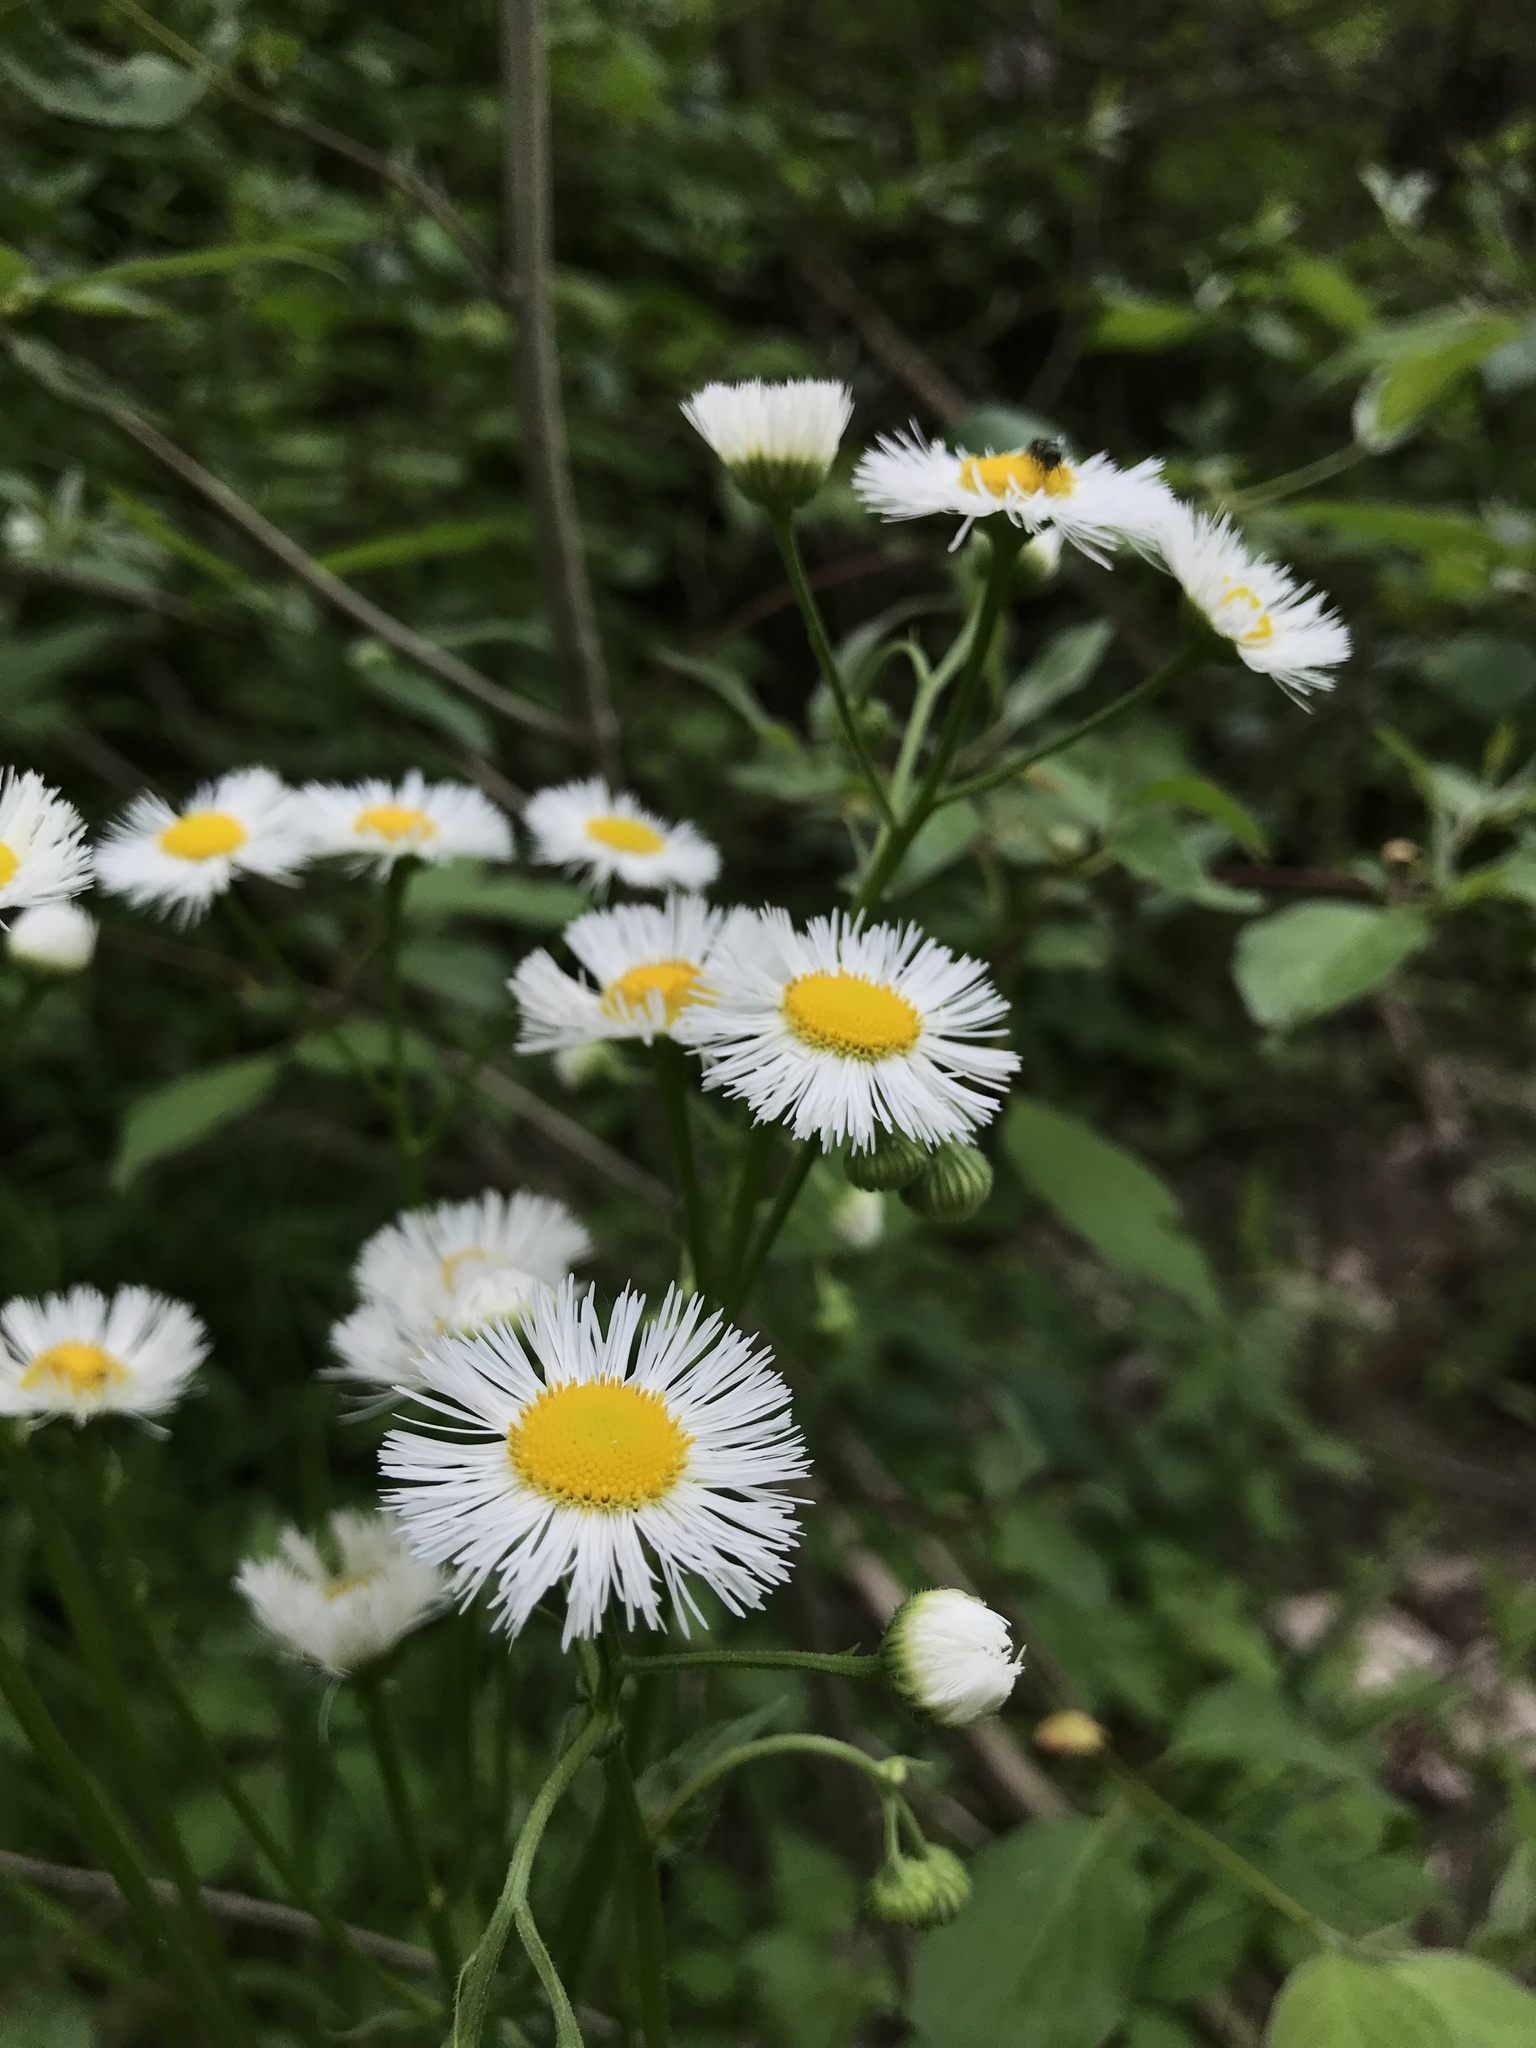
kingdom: Plantae
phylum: Tracheophyta
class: Magnoliopsida
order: Asterales
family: Asteraceae
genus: Erigeron
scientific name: Erigeron philadelphicus
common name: Robin's-plantain
